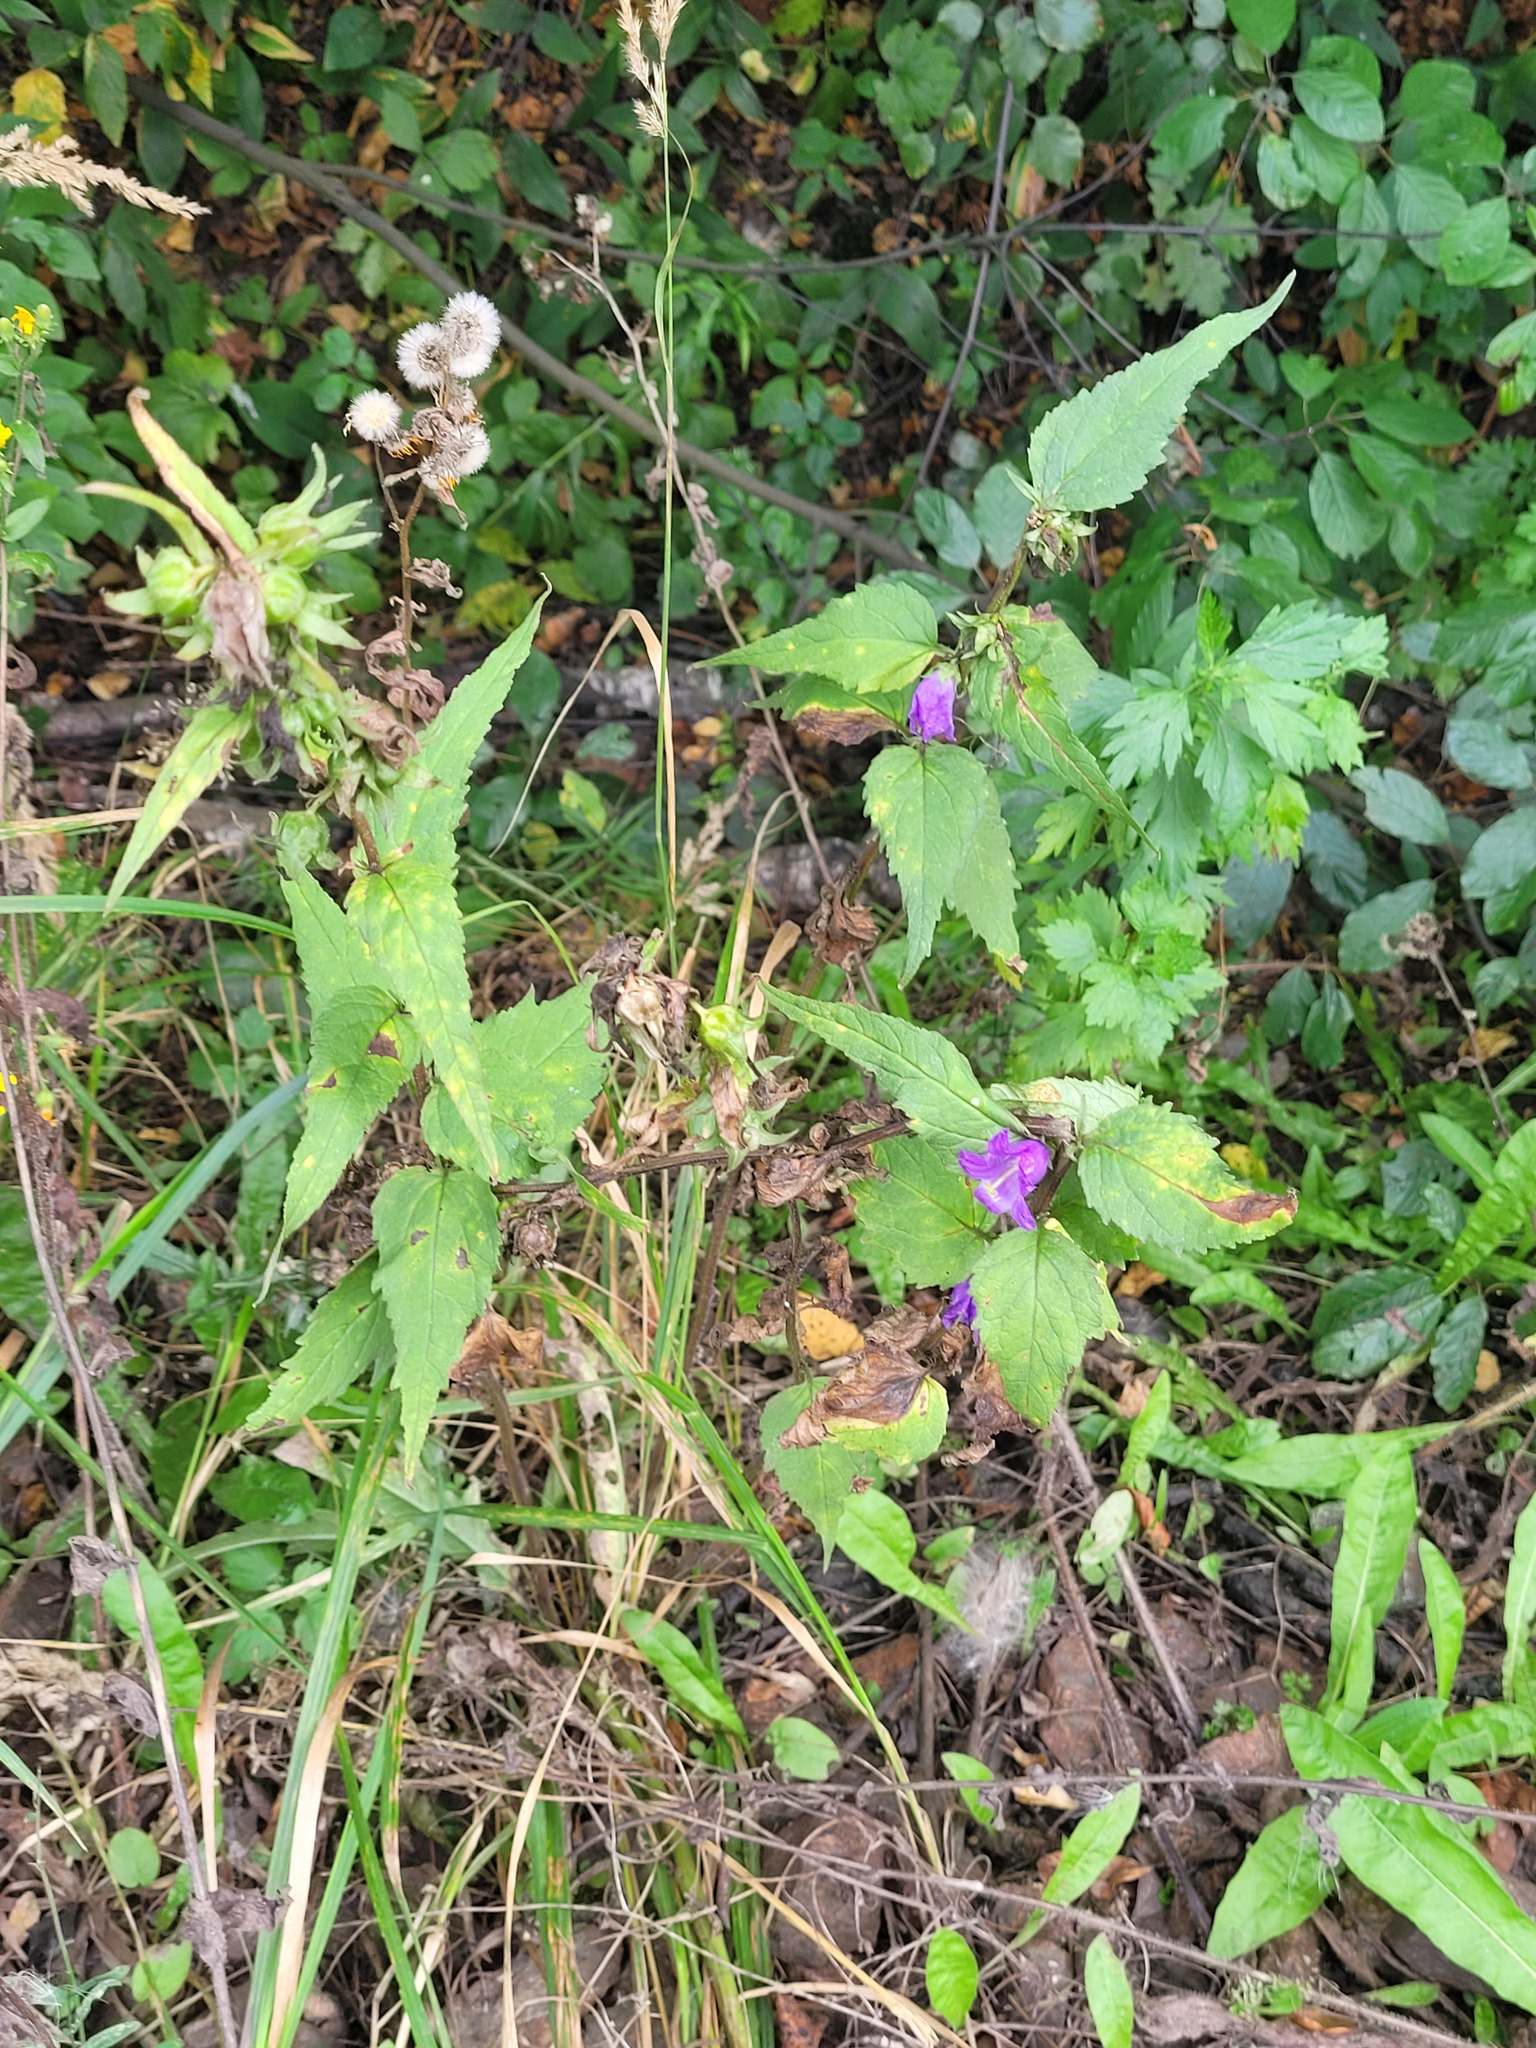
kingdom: Plantae
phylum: Tracheophyta
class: Magnoliopsida
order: Asterales
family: Campanulaceae
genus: Campanula
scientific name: Campanula trachelium
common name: Nettle-leaved bellflower
